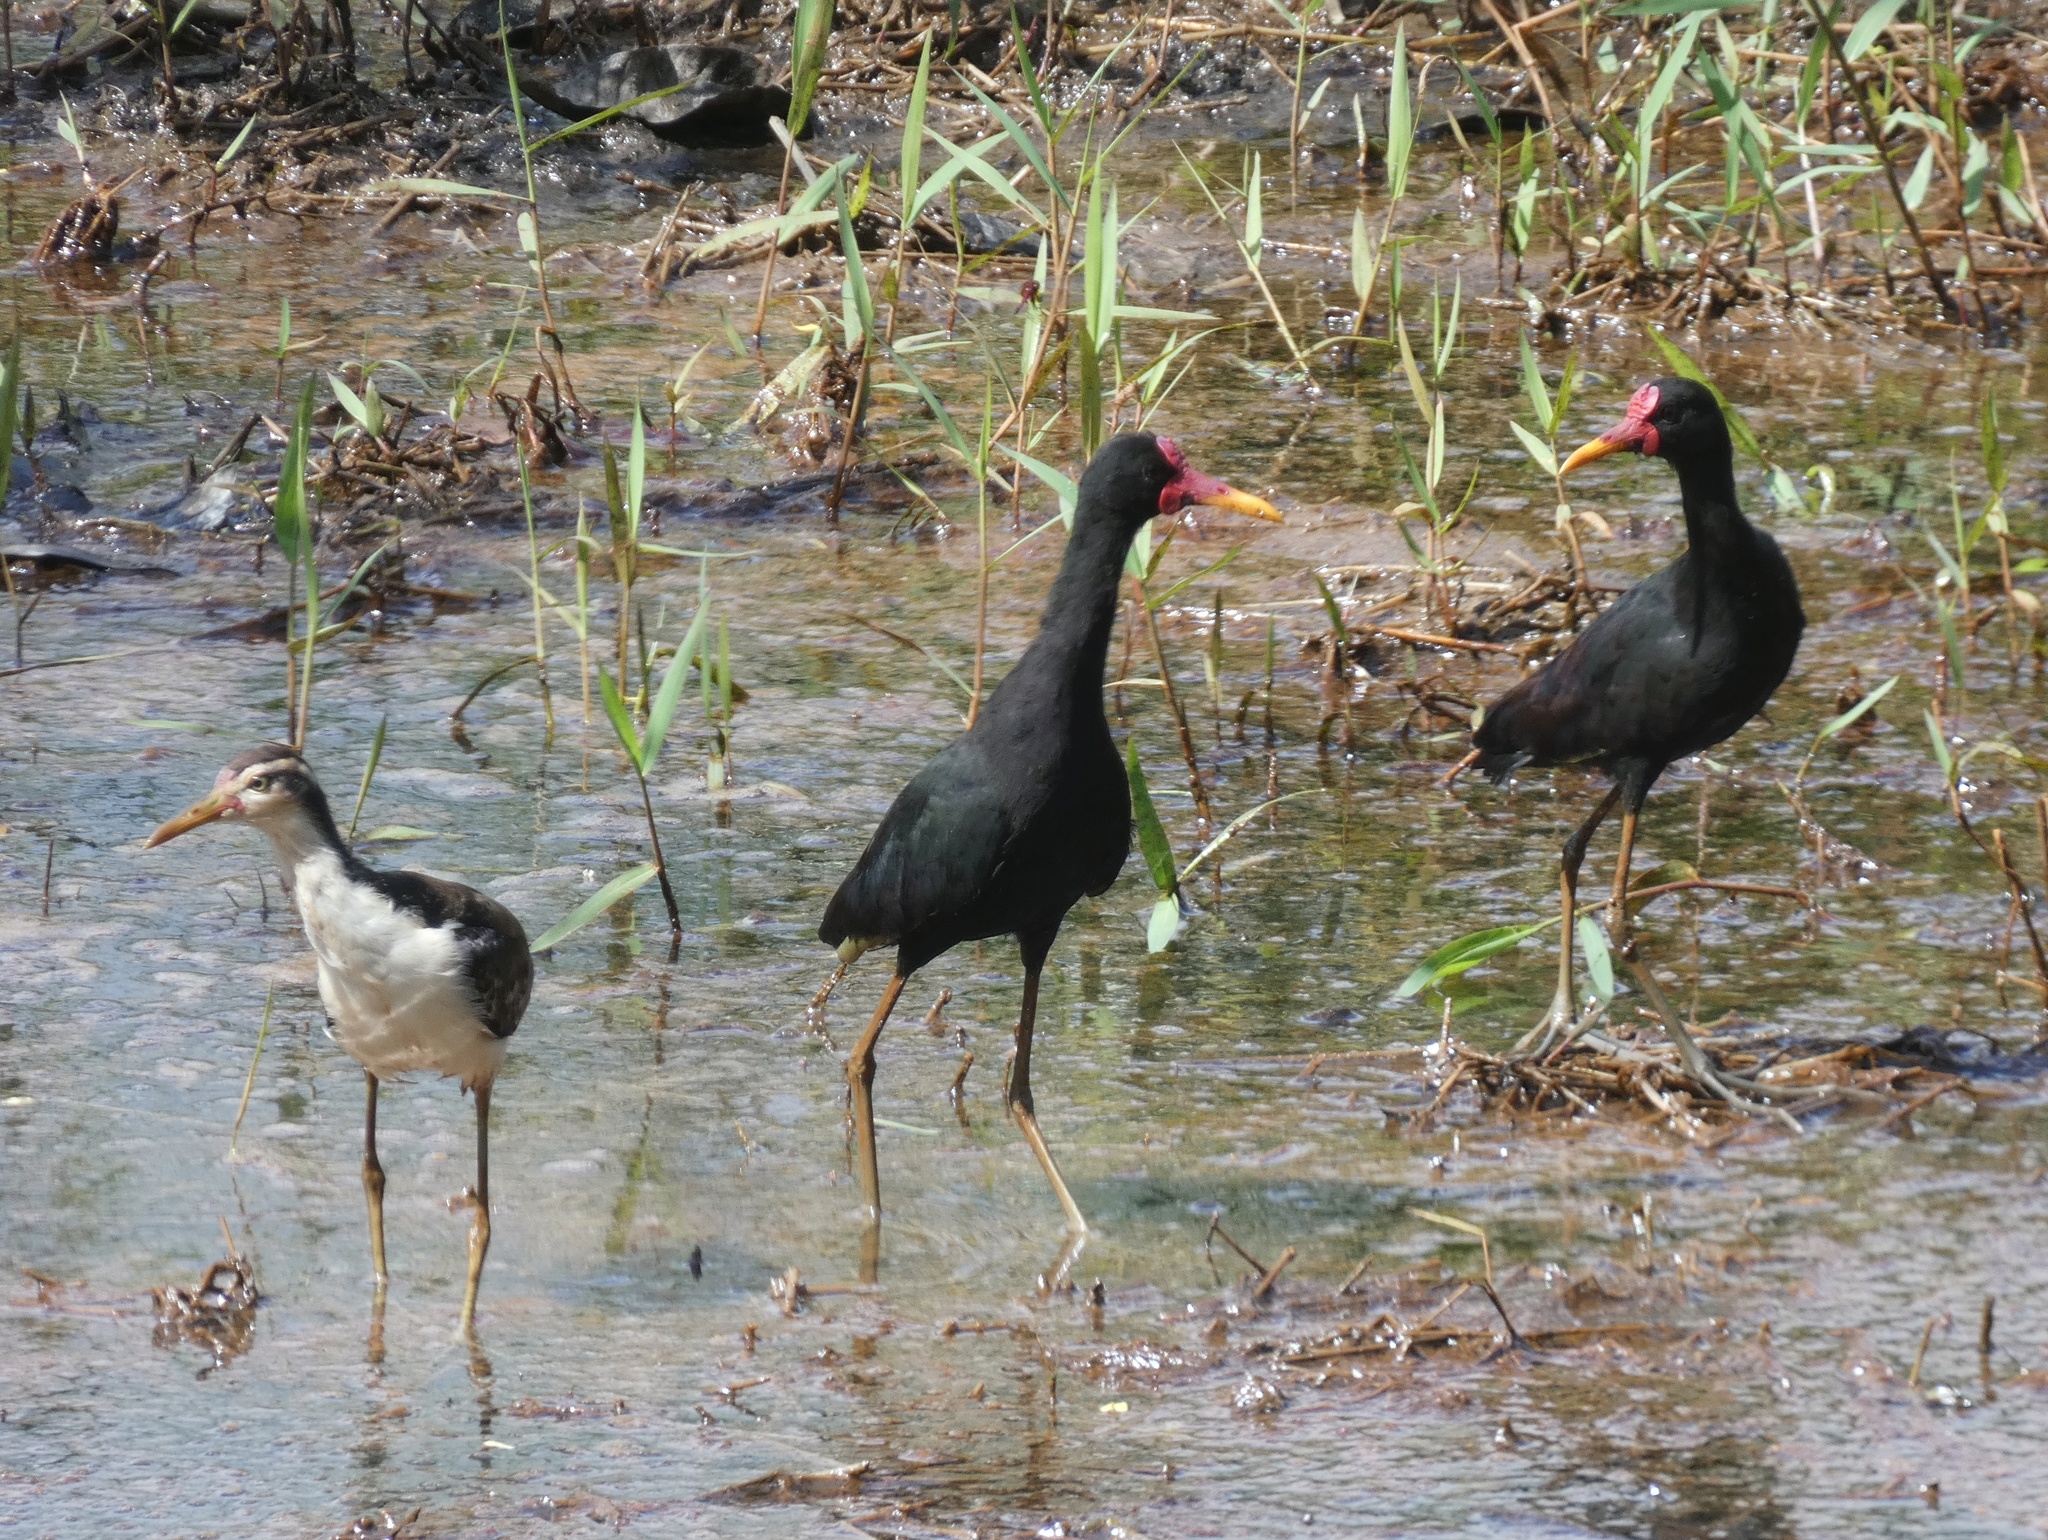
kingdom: Animalia
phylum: Chordata
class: Aves
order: Charadriiformes
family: Jacanidae
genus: Jacana
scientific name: Jacana jacana
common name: Wattled jacana
